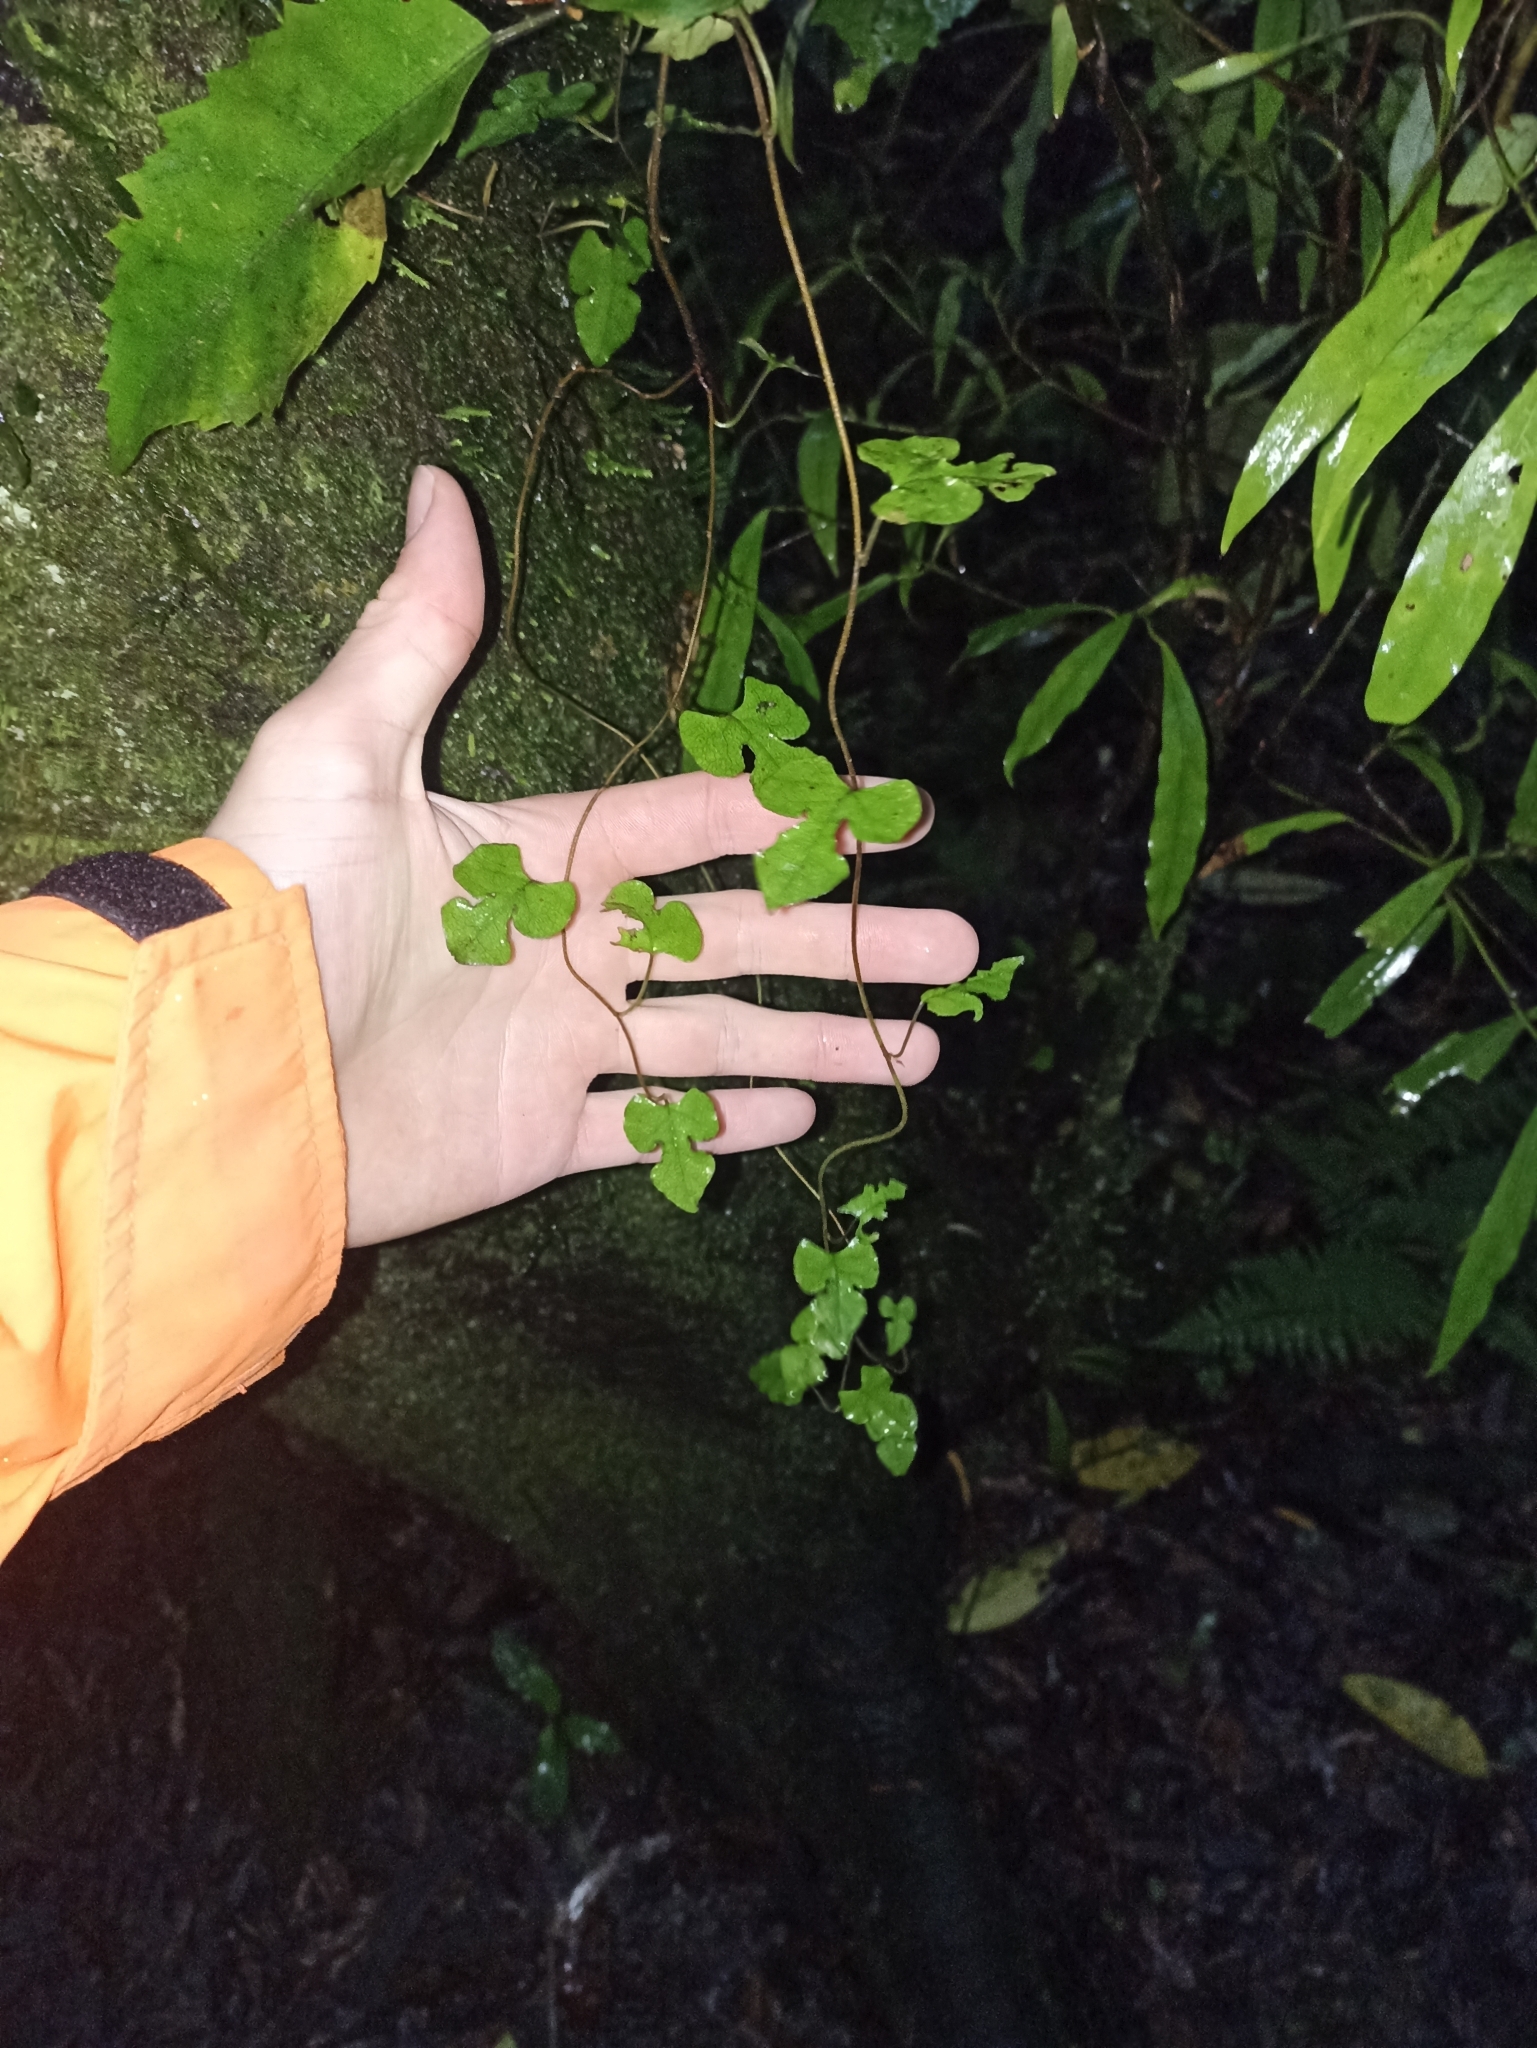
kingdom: Plantae
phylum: Tracheophyta
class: Magnoliopsida
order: Caryophyllales
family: Polygonaceae
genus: Muehlenbeckia
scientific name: Muehlenbeckia australis
